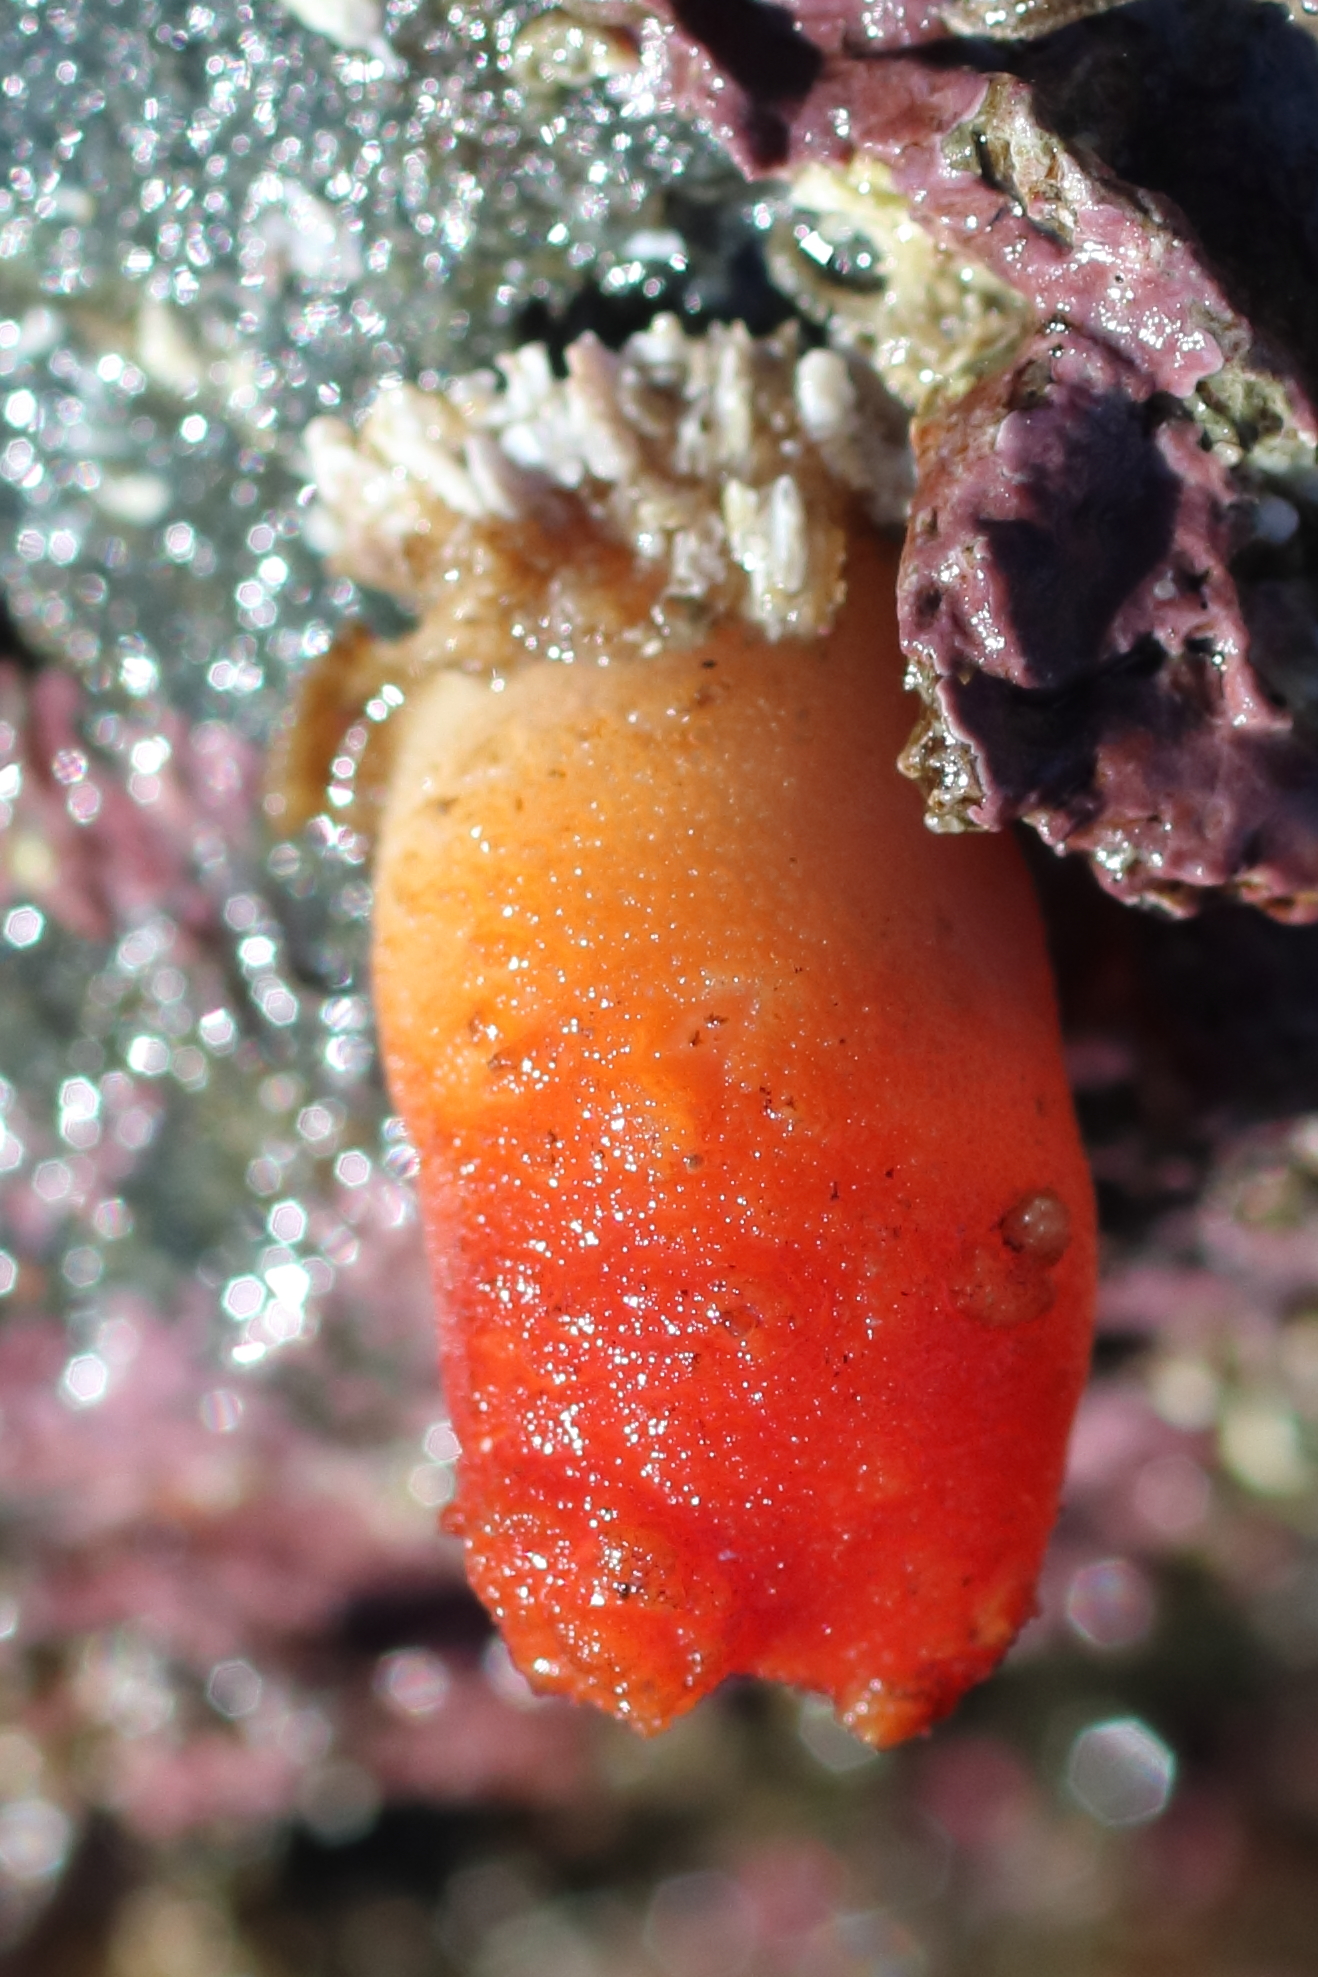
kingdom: Animalia
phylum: Chordata
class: Ascidiacea
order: Stolidobranchia
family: Styelidae
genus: Styela
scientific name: Styela truncata
